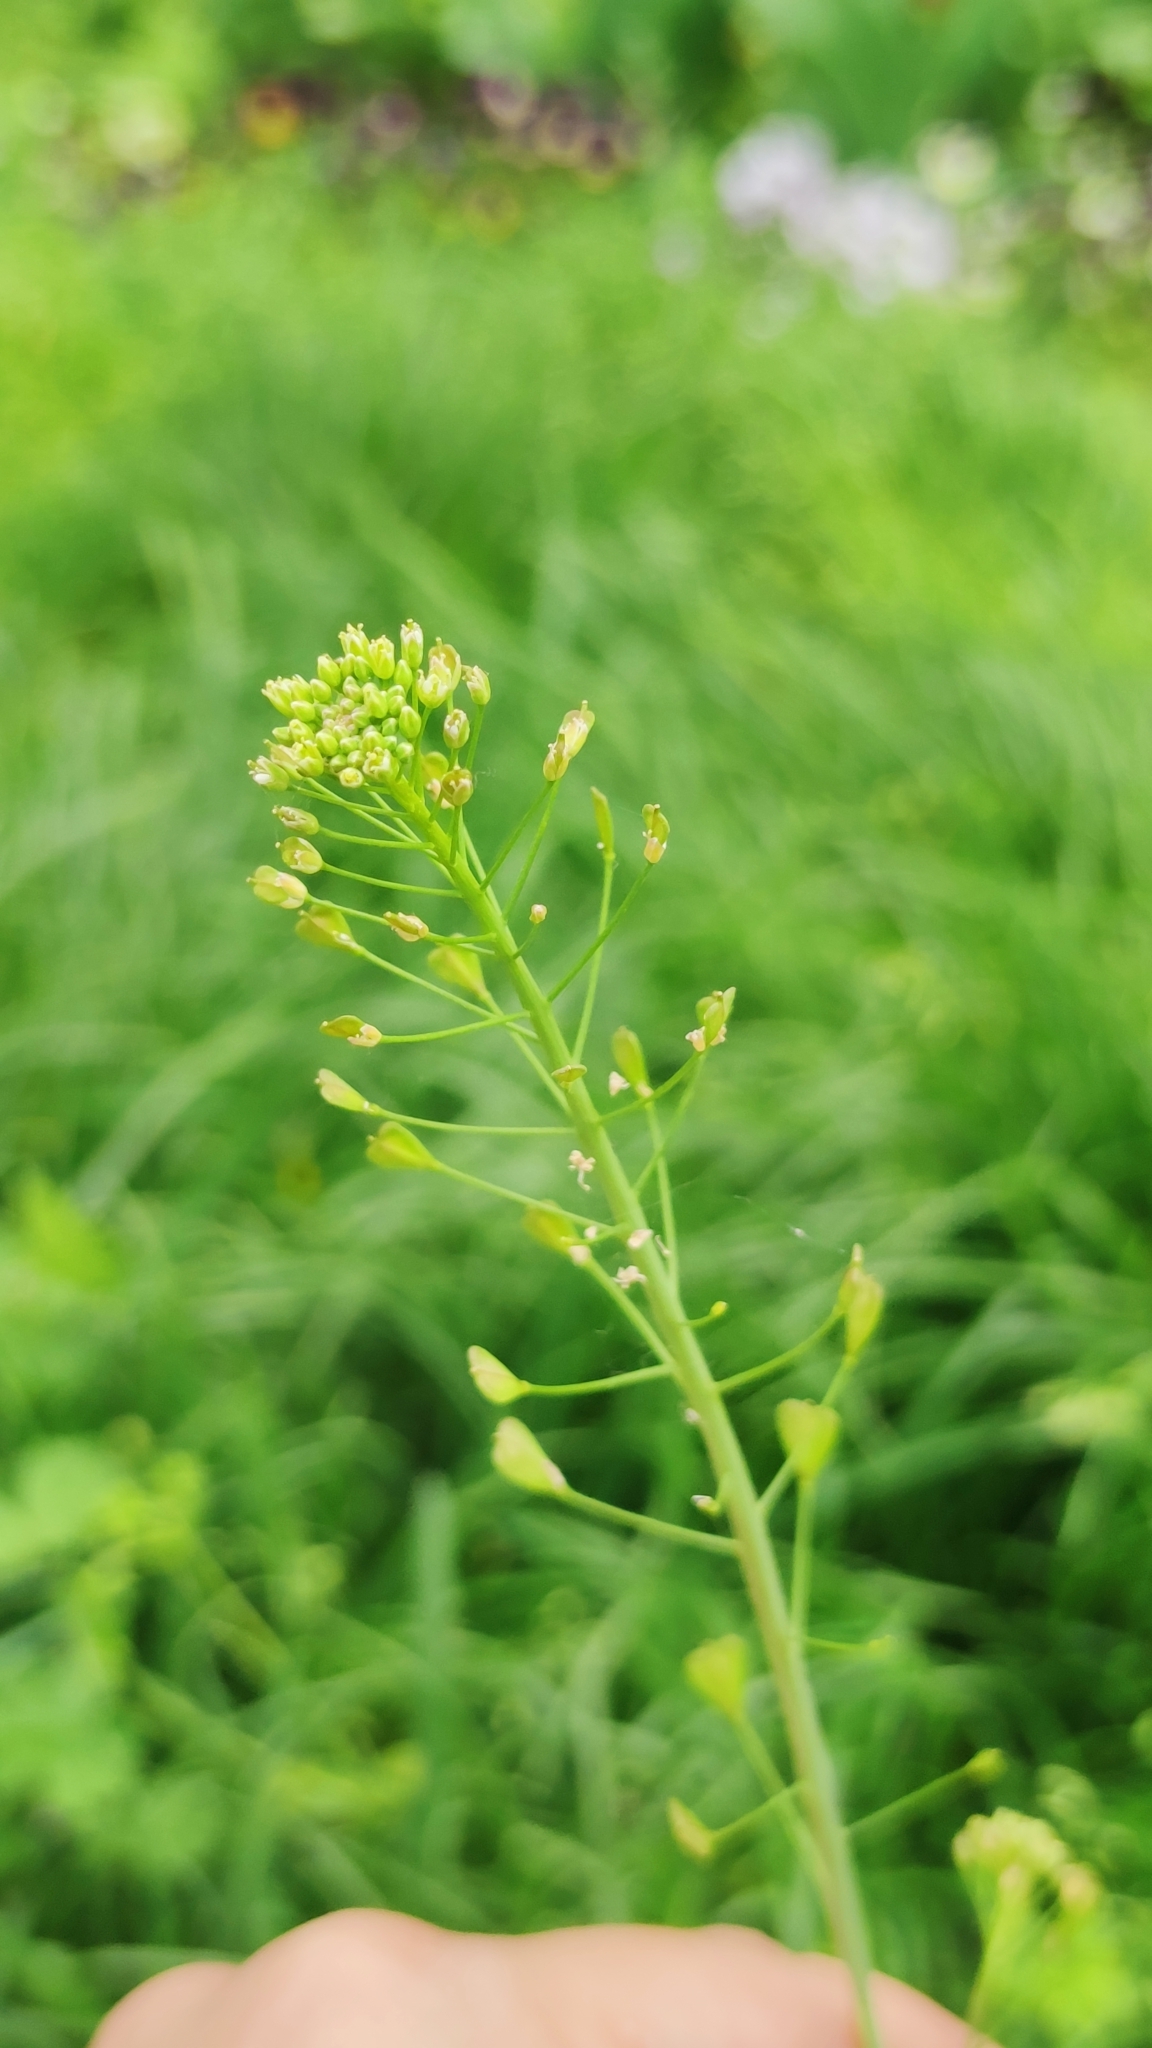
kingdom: Plantae
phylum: Tracheophyta
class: Magnoliopsida
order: Brassicales
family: Brassicaceae
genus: Capsella
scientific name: Capsella bursa-pastoris
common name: Shepherd's purse
